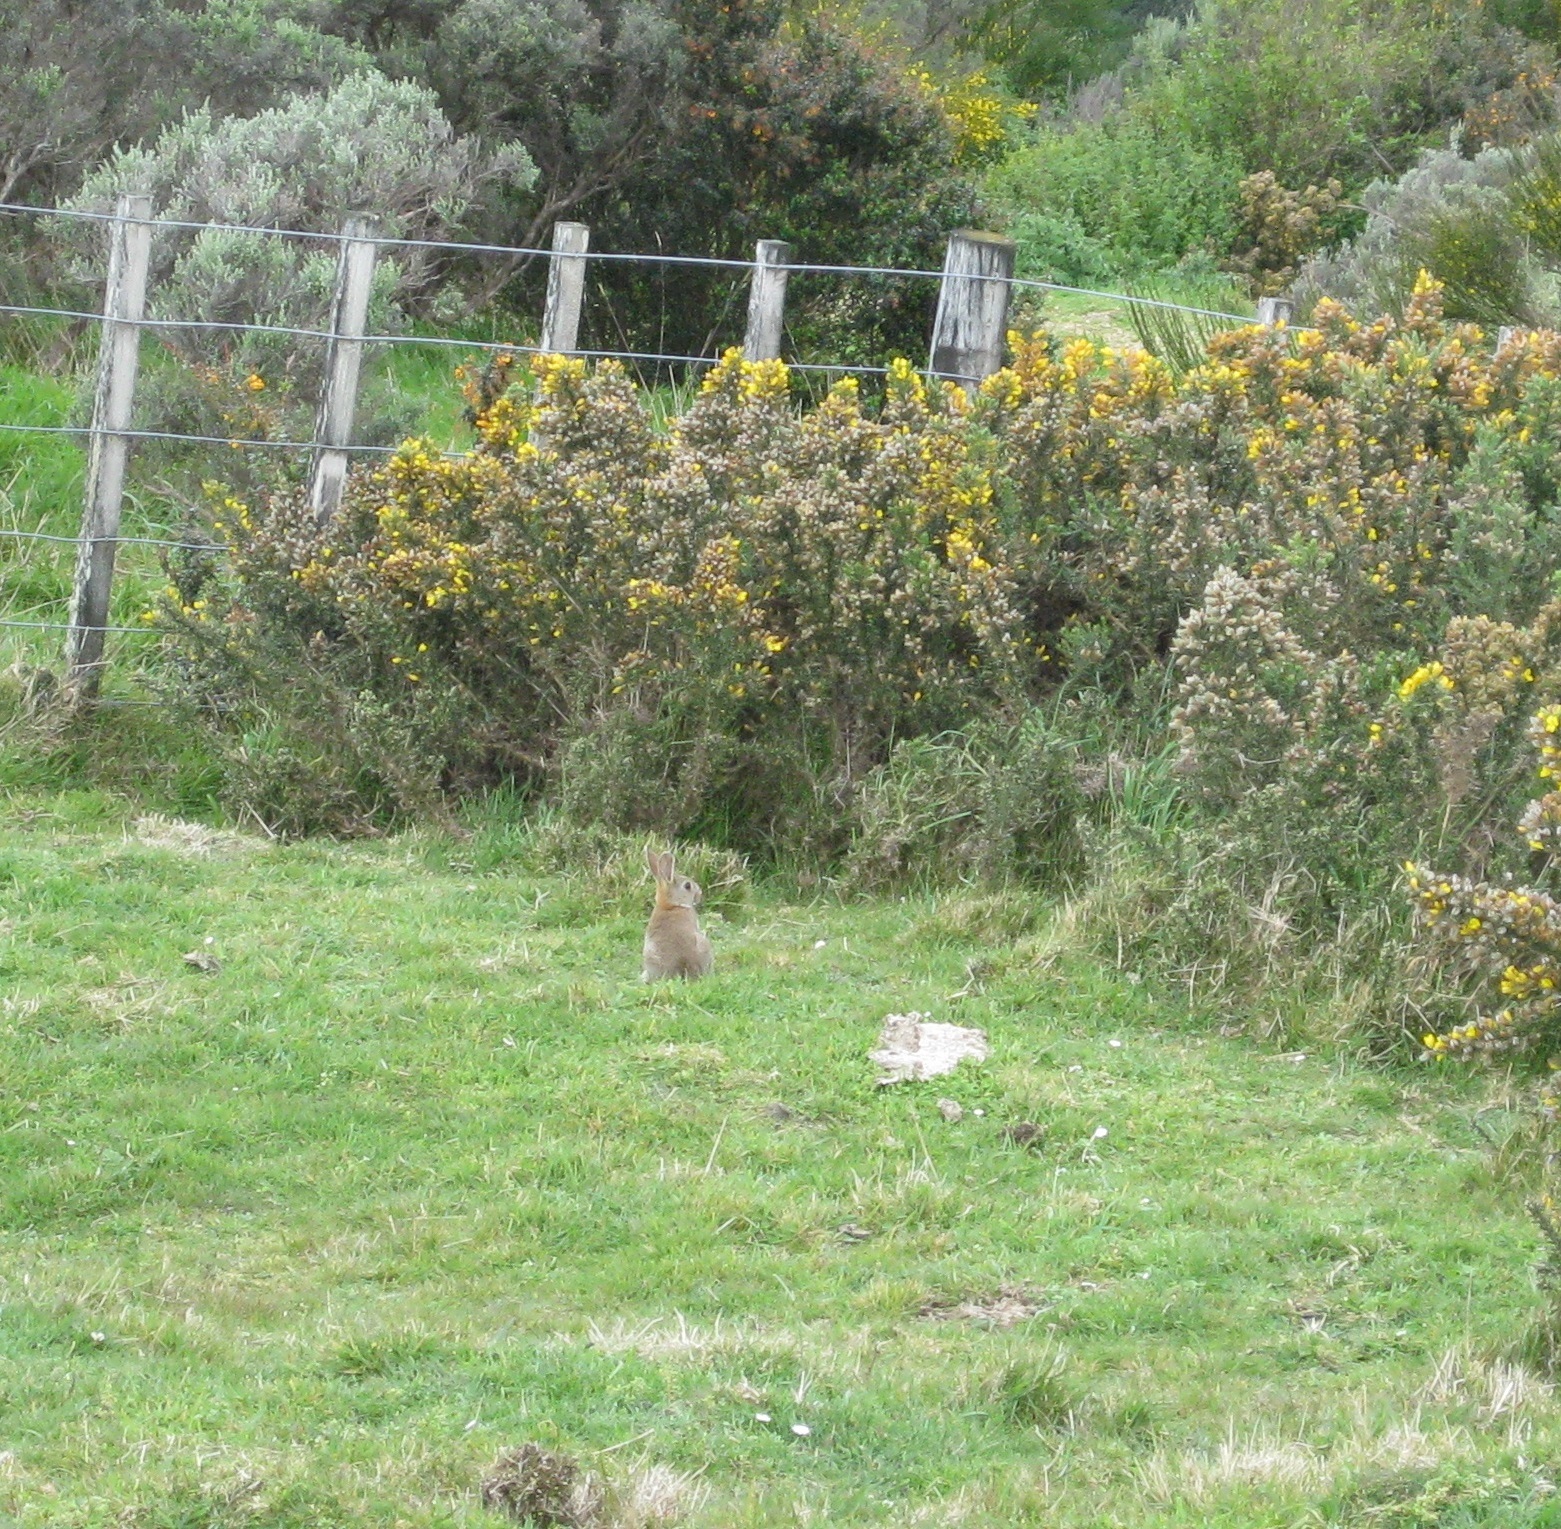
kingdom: Animalia
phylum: Chordata
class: Mammalia
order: Lagomorpha
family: Leporidae
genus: Oryctolagus
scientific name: Oryctolagus cuniculus
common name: European rabbit
